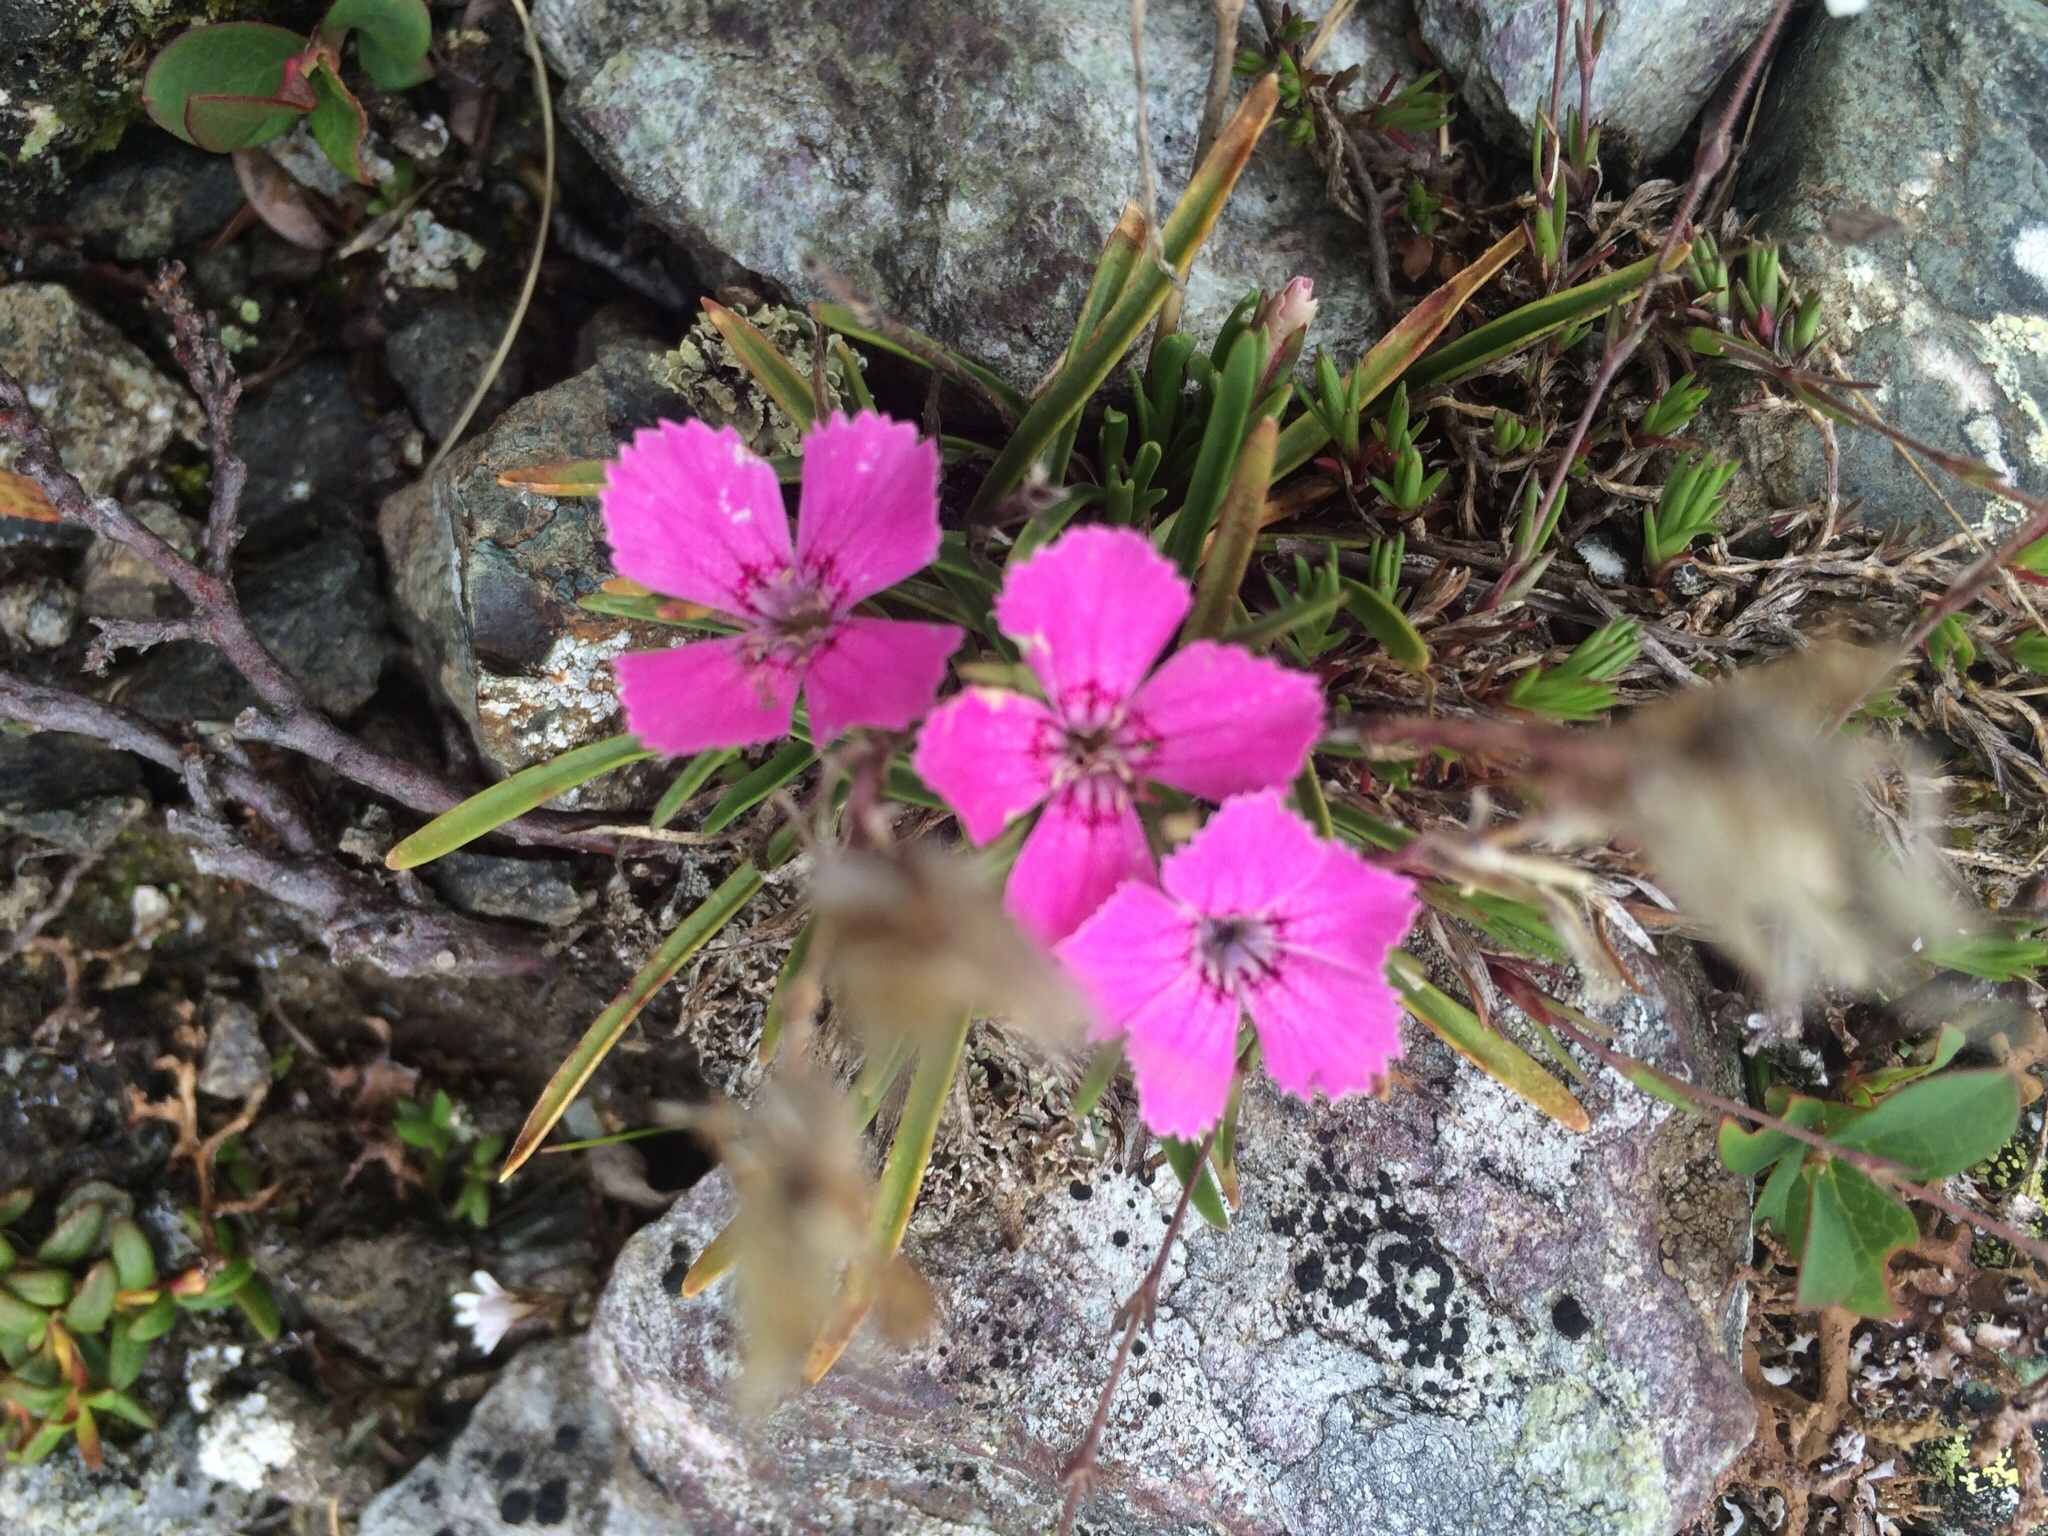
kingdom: Plantae
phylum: Tracheophyta
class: Magnoliopsida
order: Caryophyllales
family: Caryophyllaceae
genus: Dianthus
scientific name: Dianthus glacialis
